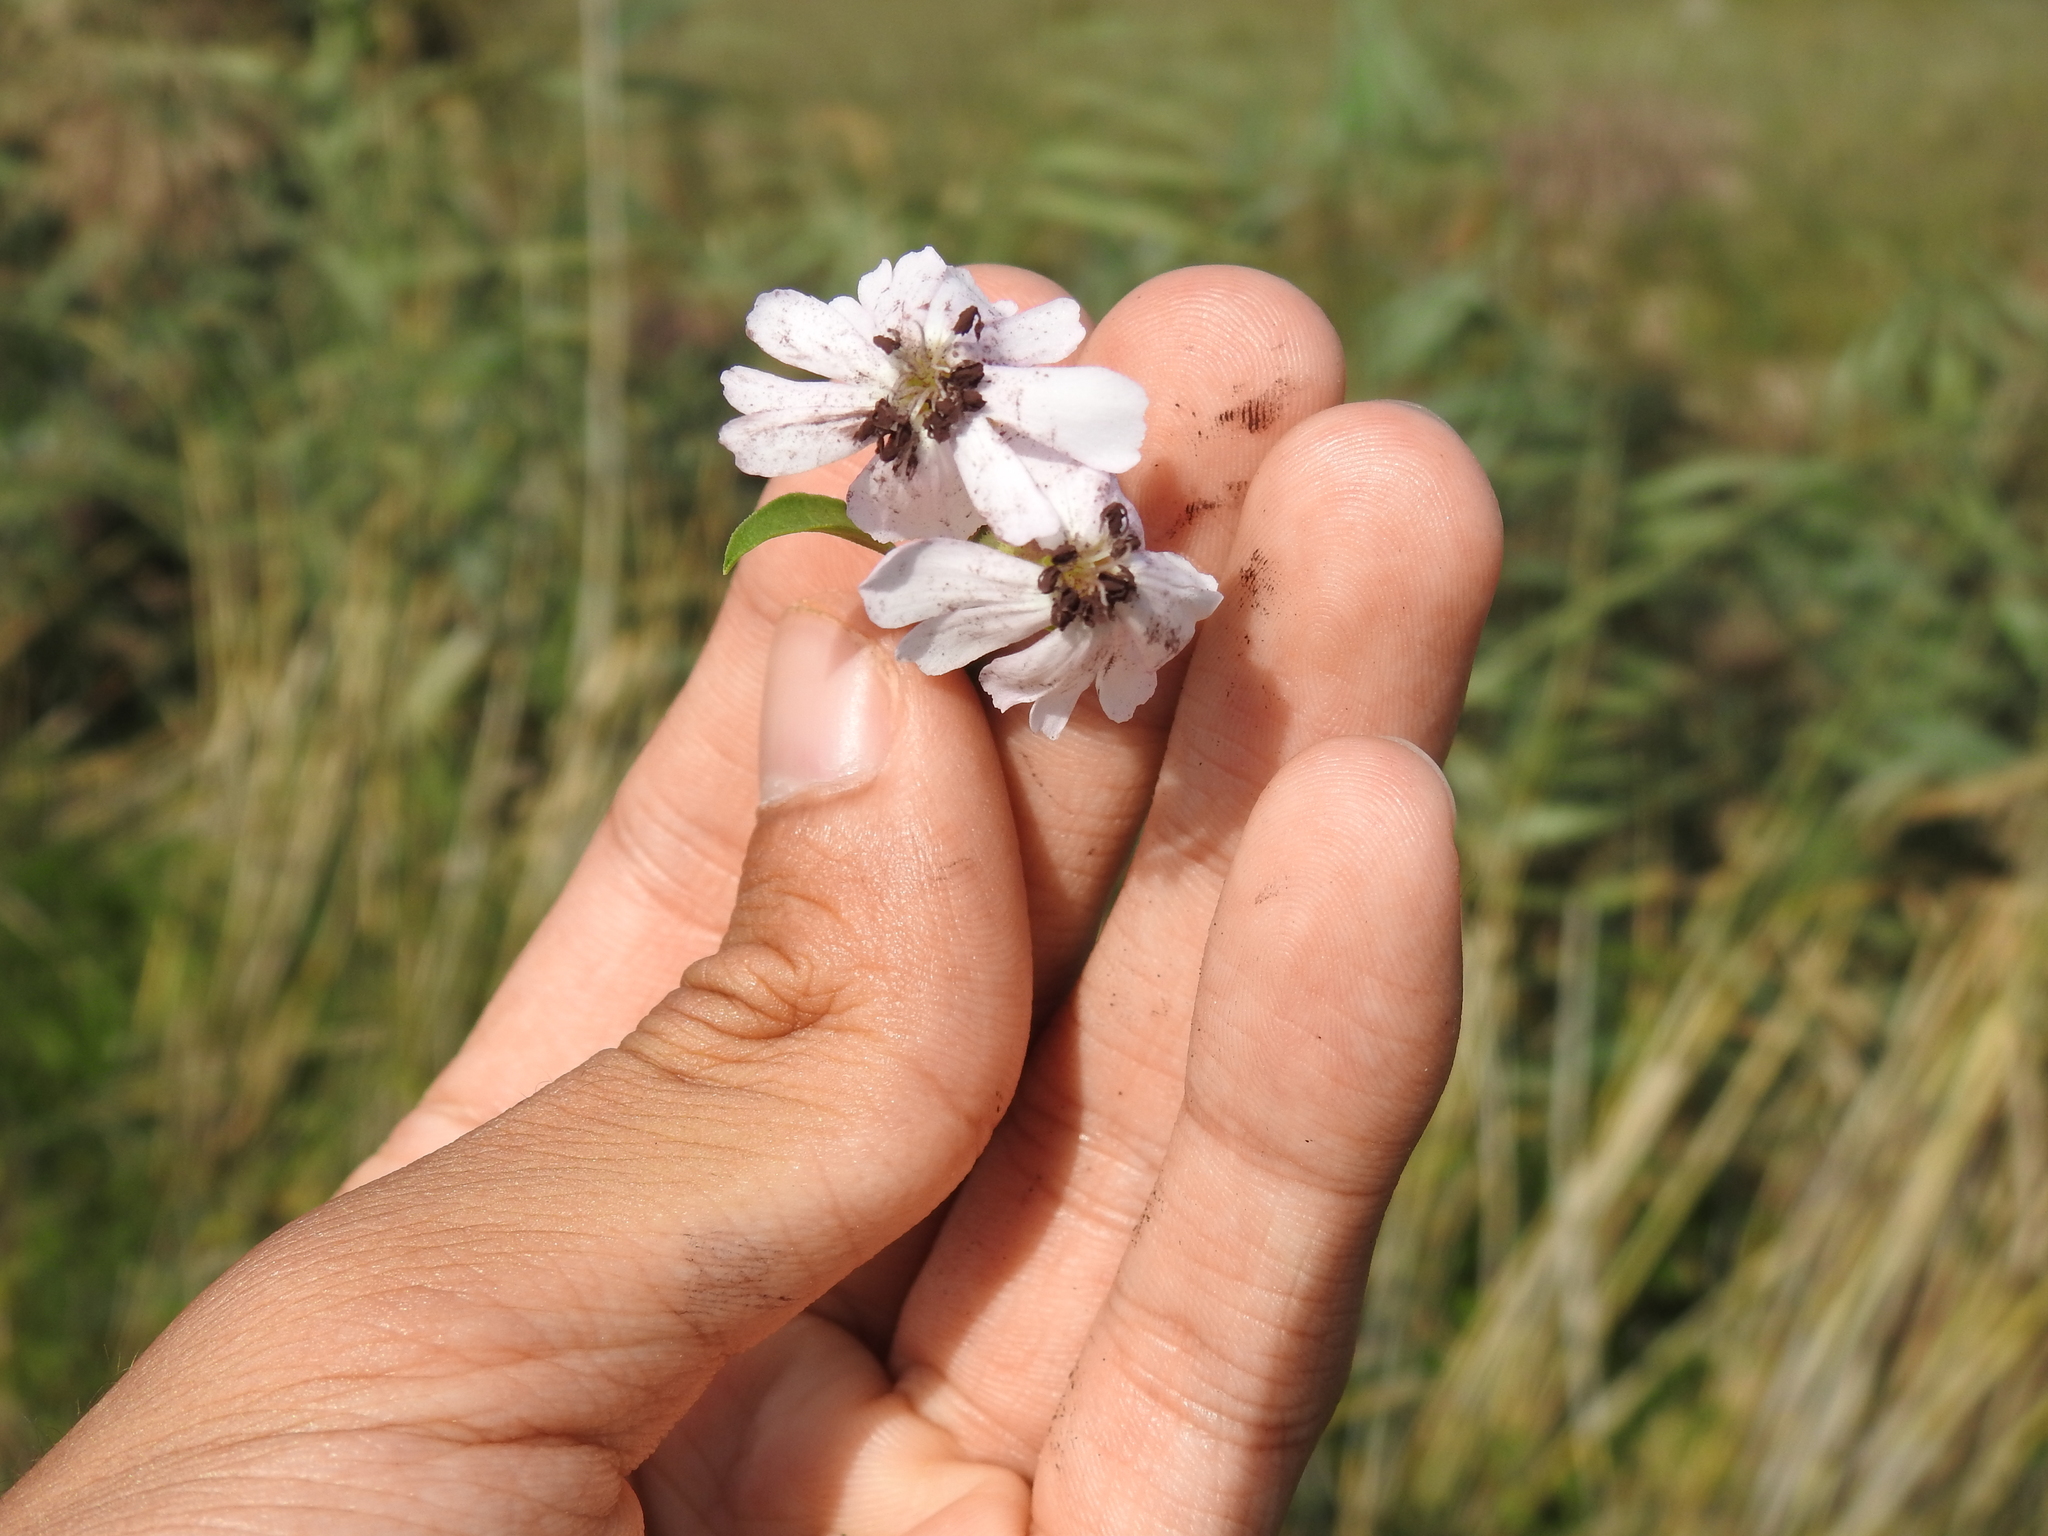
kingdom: Fungi
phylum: Basidiomycota
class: Microbotryomycetes
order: Microbotryales
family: Microbotryaceae
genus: Microbotryum
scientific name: Microbotryum saponariae
